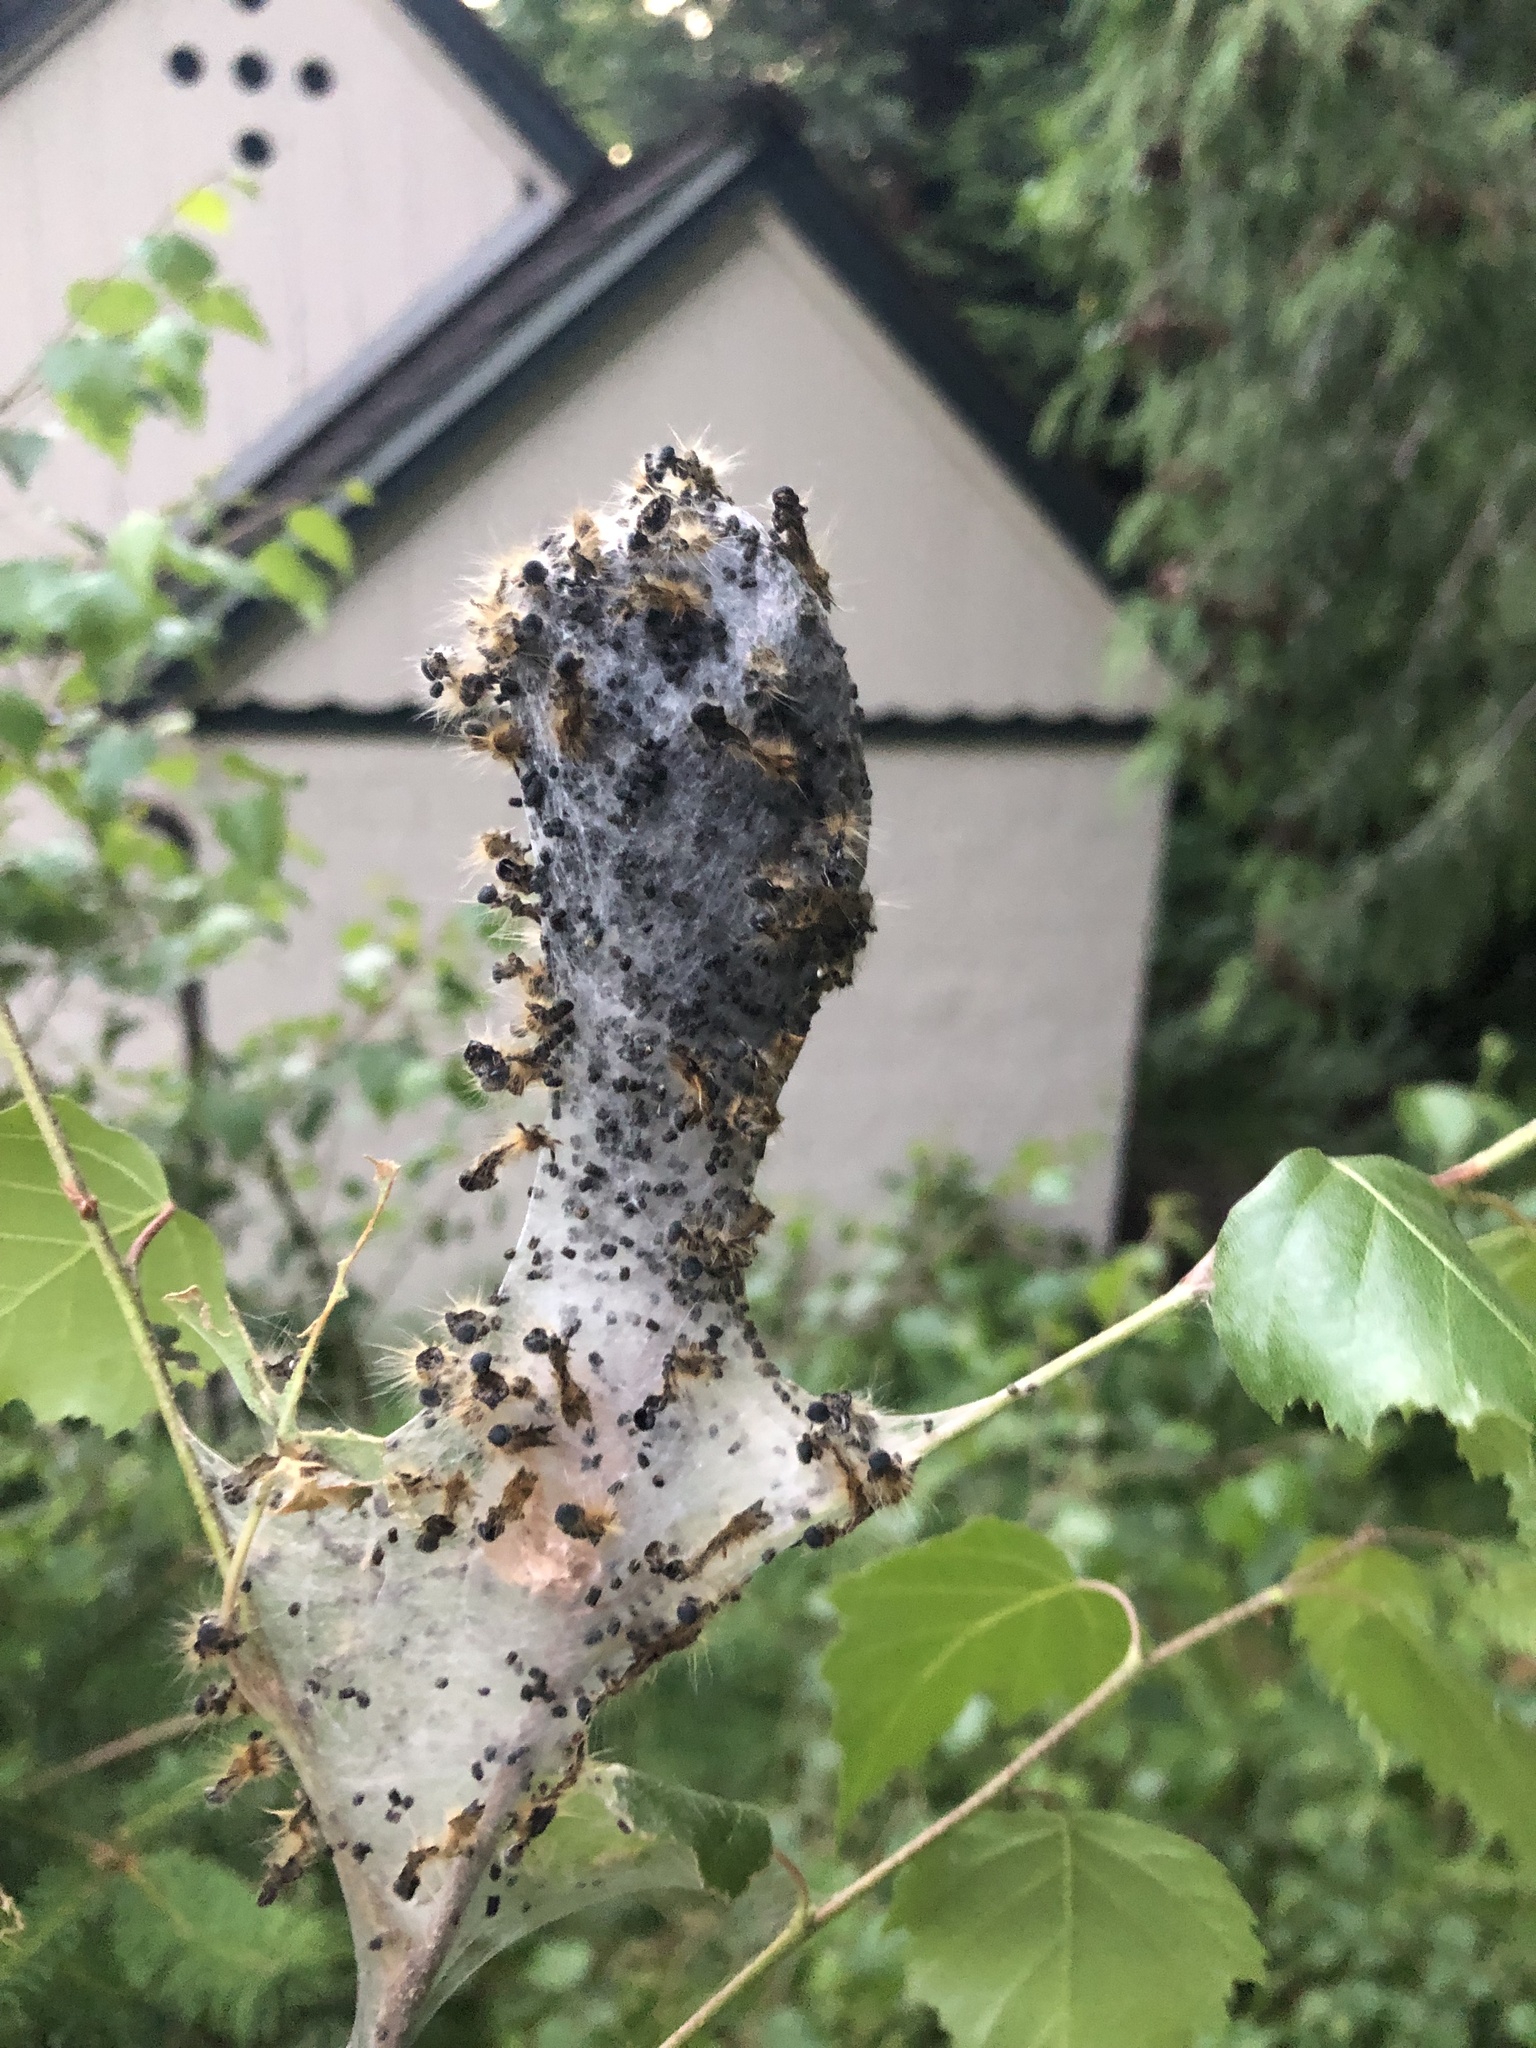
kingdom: Animalia
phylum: Arthropoda
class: Insecta
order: Lepidoptera
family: Lasiocampidae
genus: Malacosoma
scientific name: Malacosoma californica
